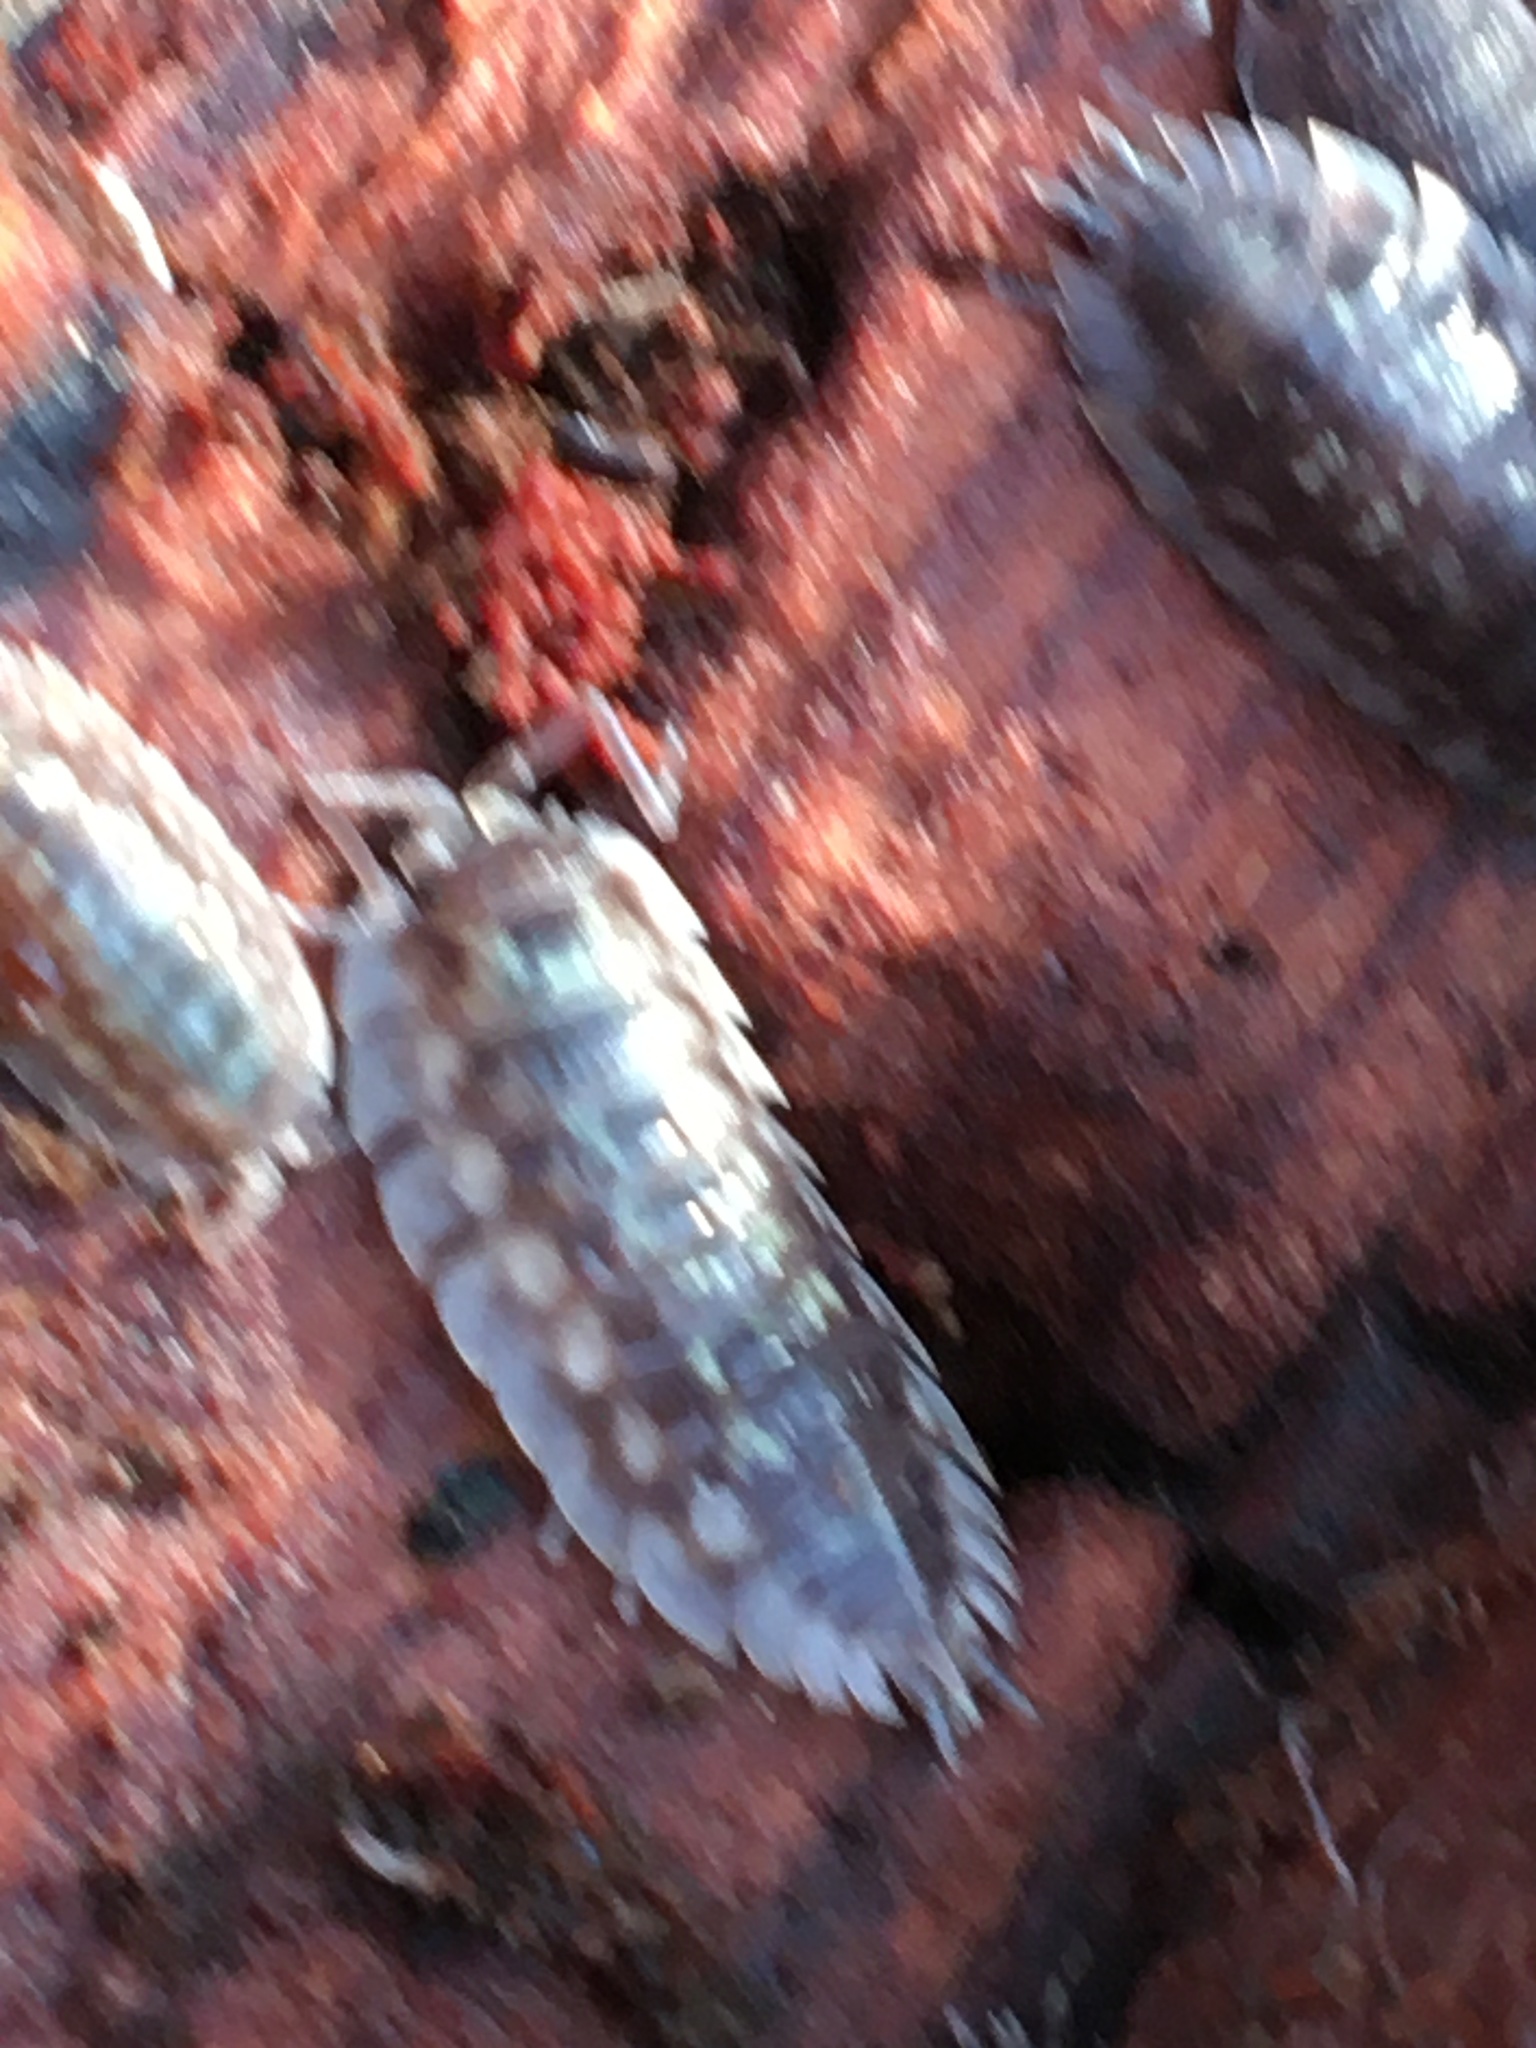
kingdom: Animalia
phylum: Arthropoda
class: Malacostraca
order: Isopoda
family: Oniscidae
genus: Oniscus
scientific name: Oniscus asellus
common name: Common shiny woodlouse
